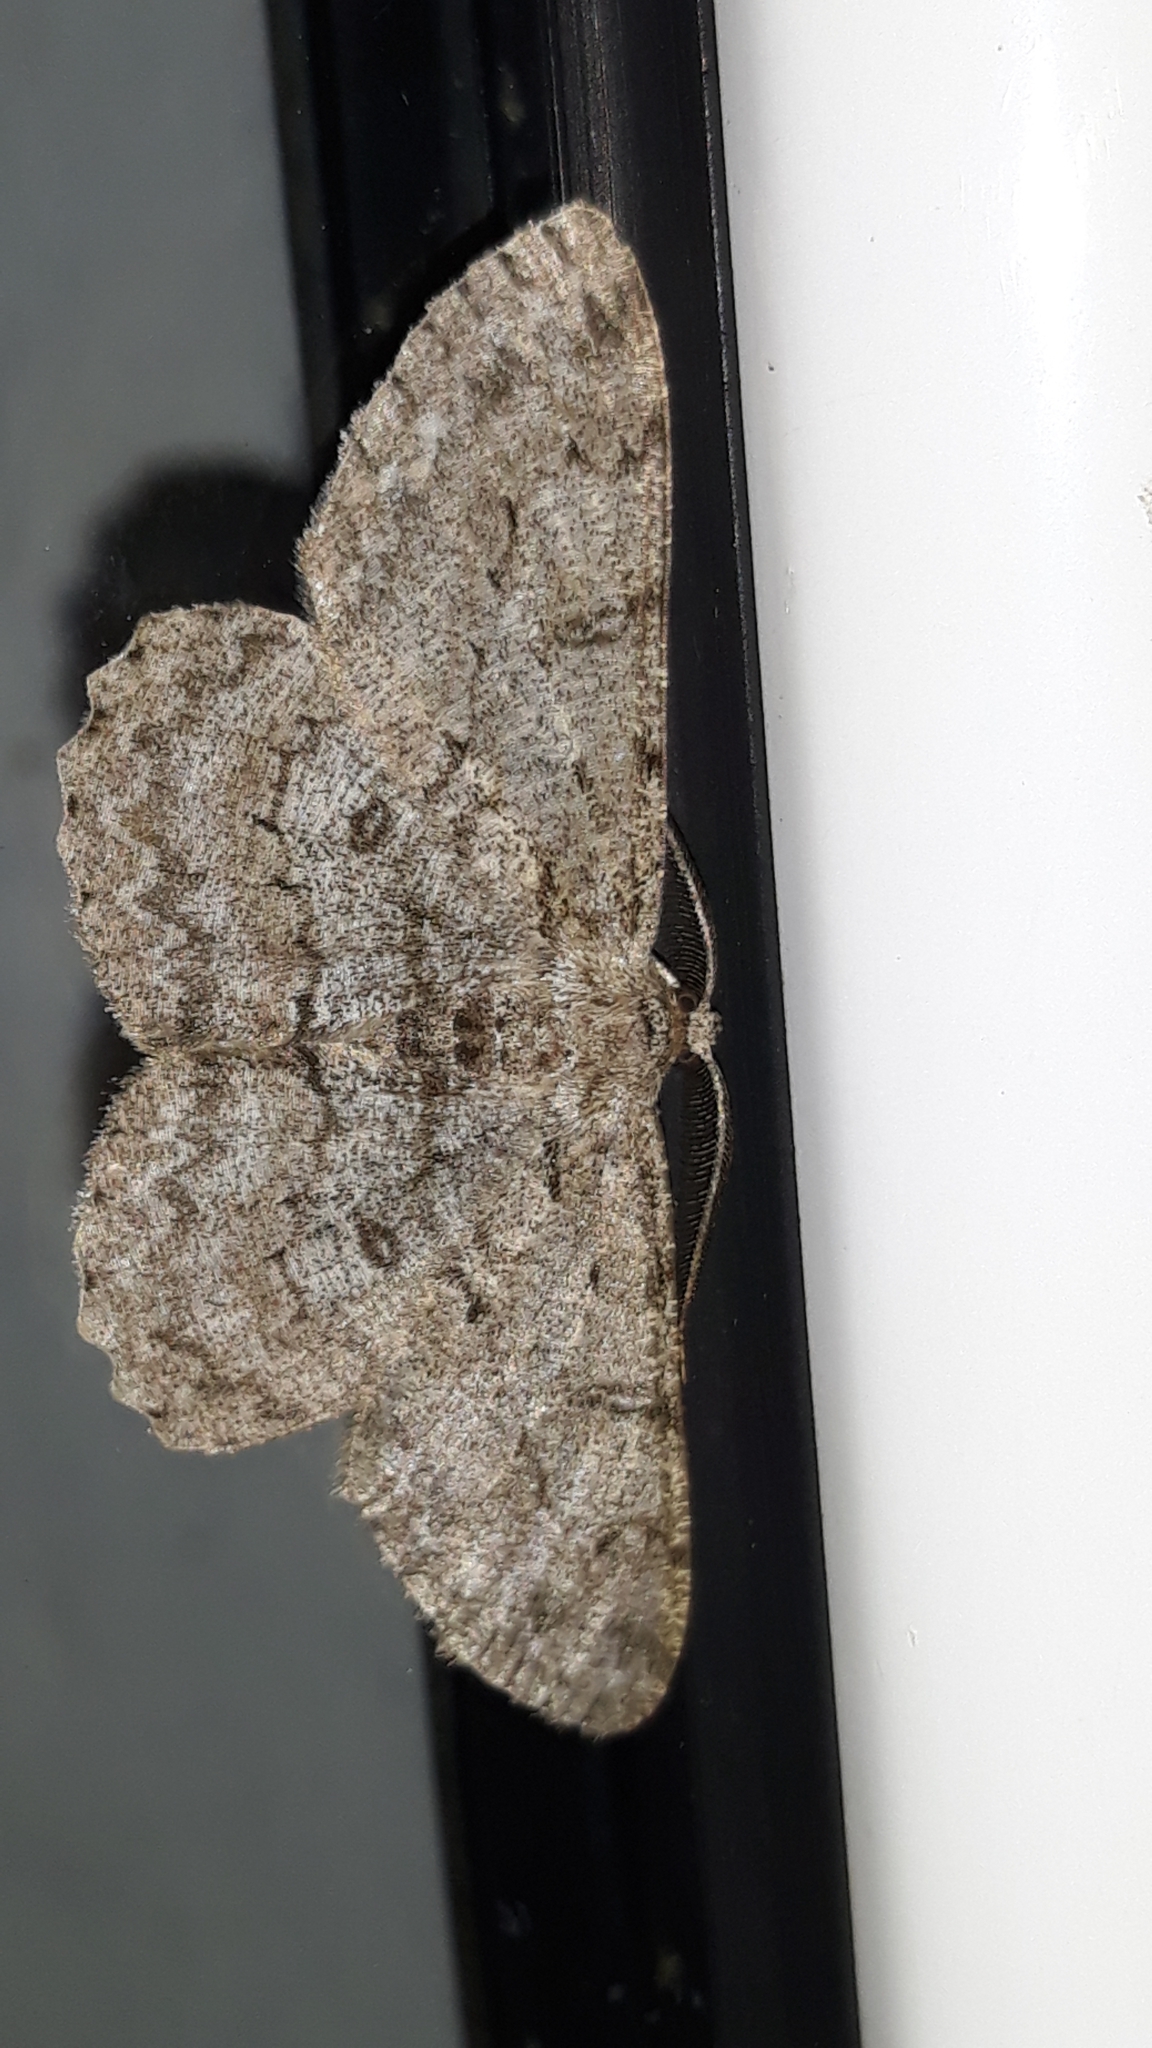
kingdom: Animalia
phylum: Arthropoda
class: Insecta
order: Lepidoptera
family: Geometridae
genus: Hypomecis
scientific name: Hypomecis punctinalis
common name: Pale oak beauty
